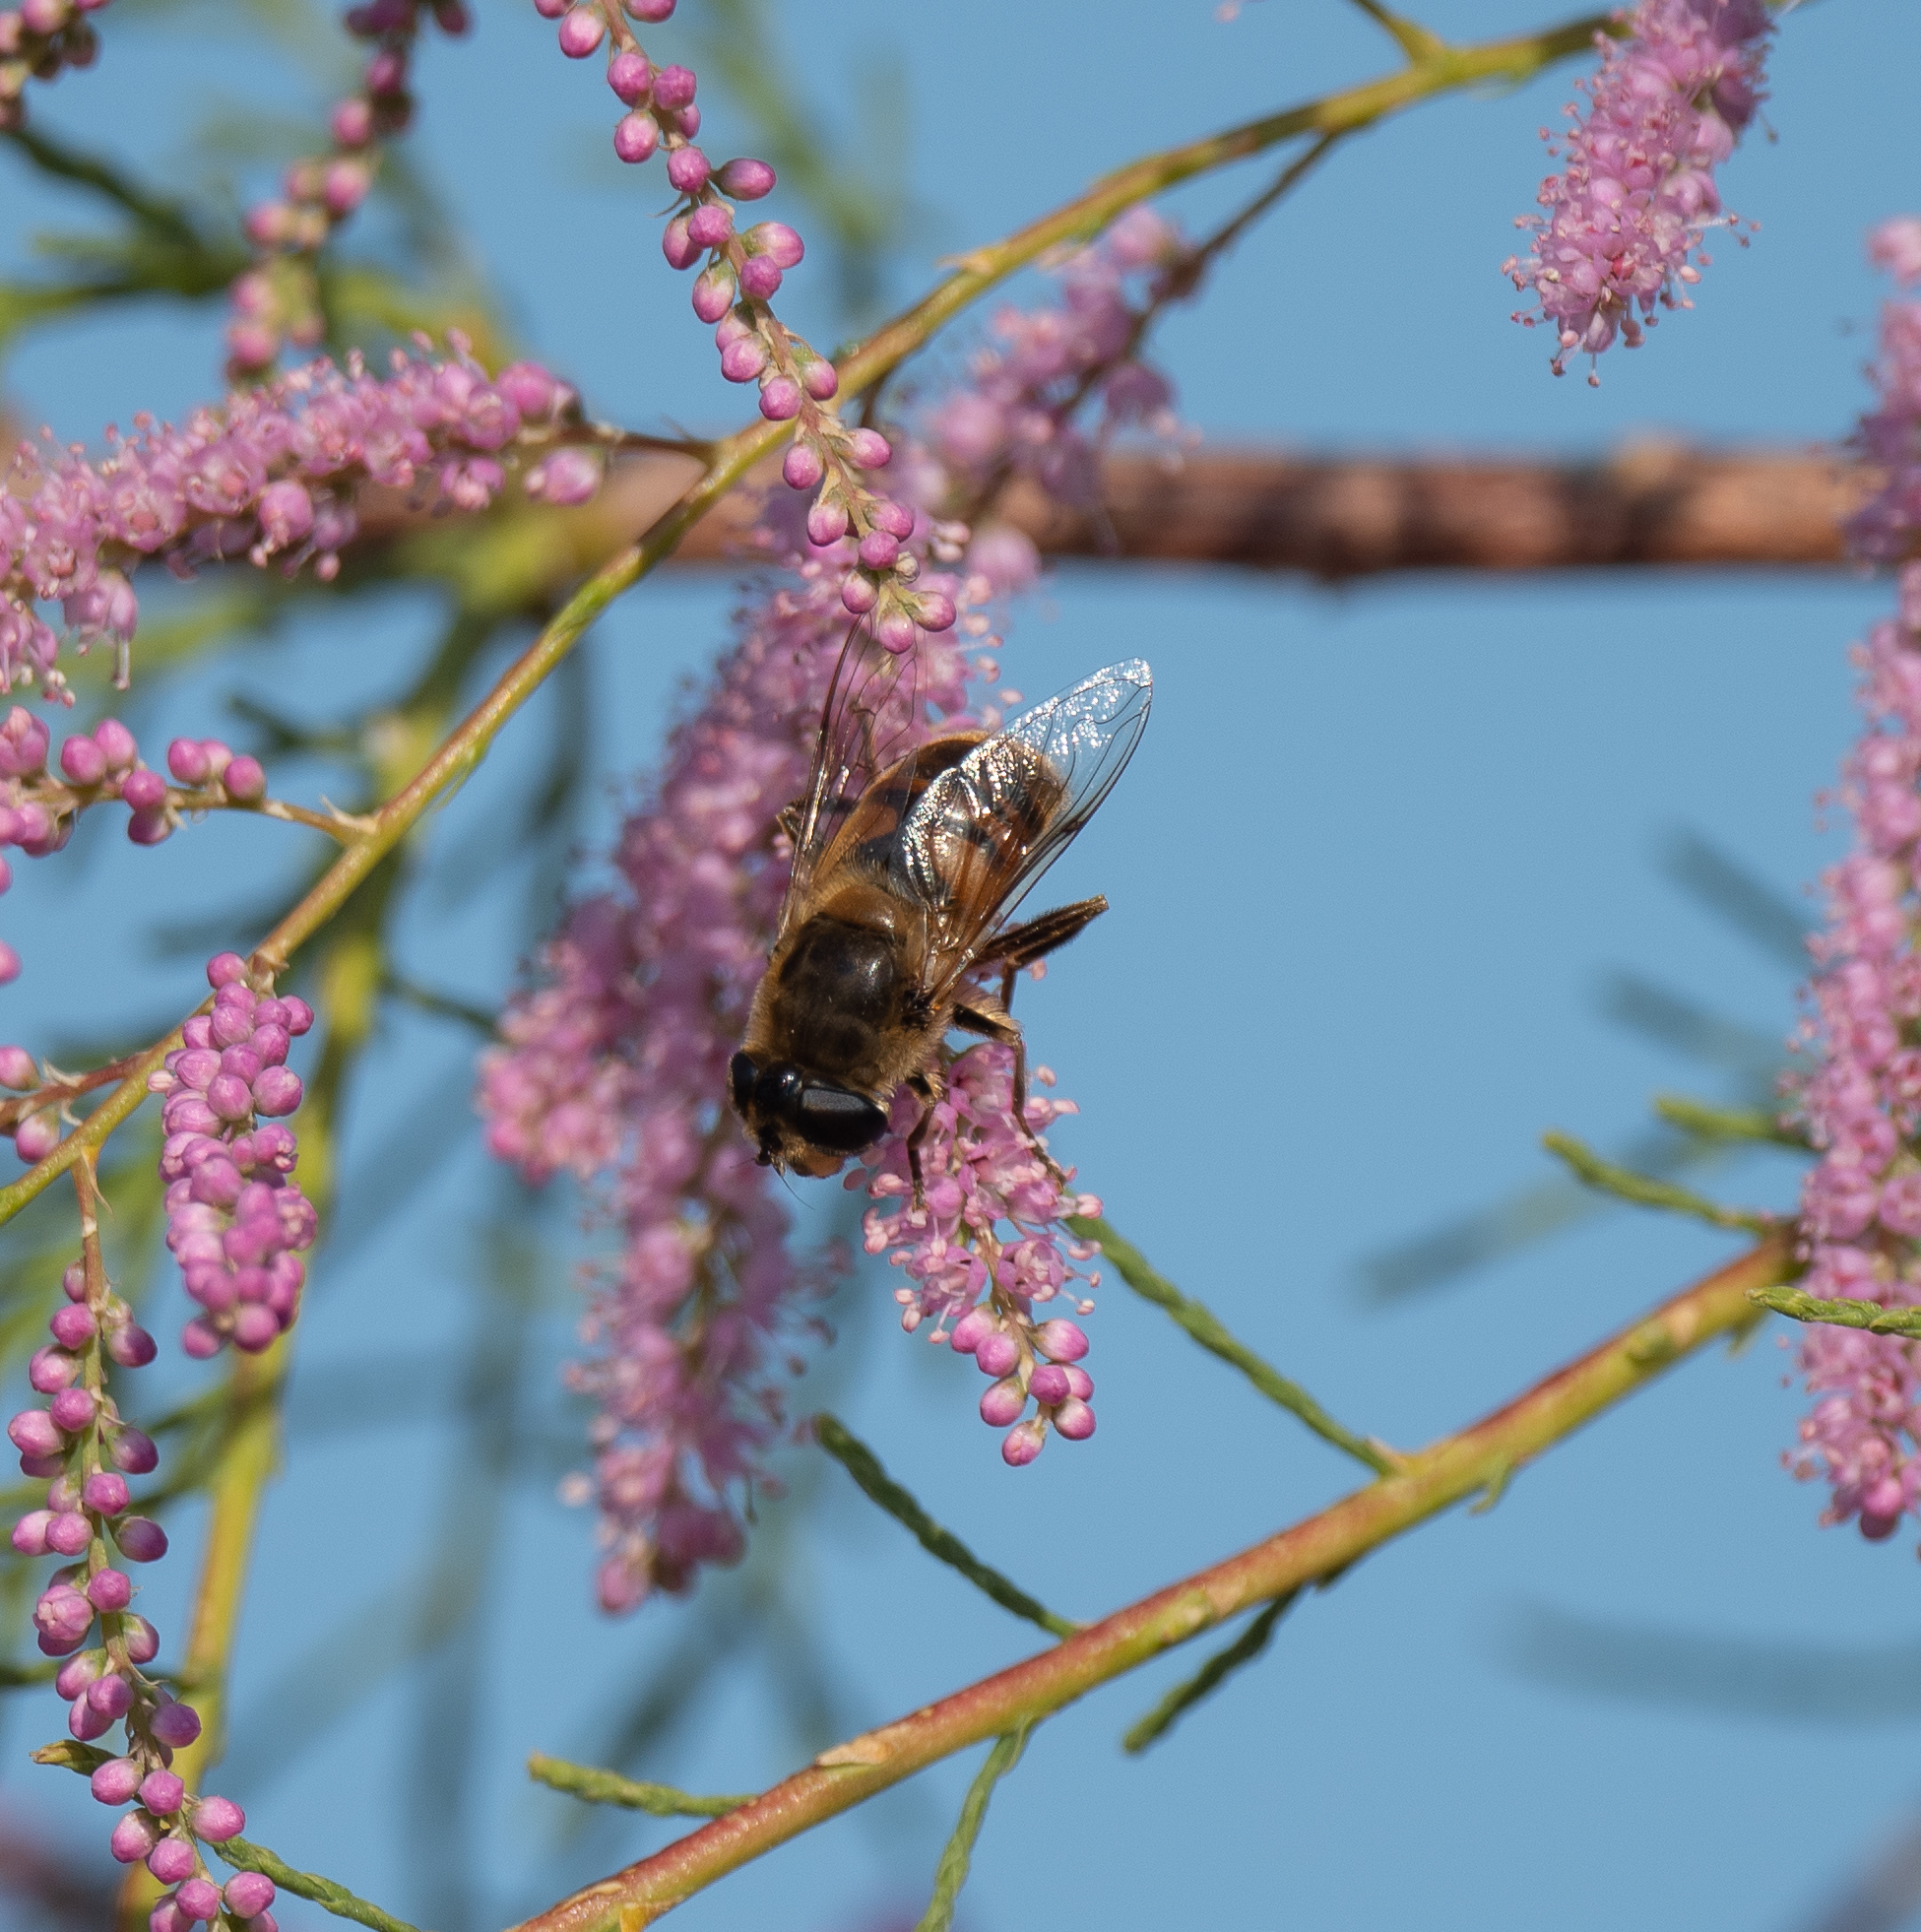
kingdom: Animalia
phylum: Arthropoda
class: Insecta
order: Diptera
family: Syrphidae
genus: Eristalis
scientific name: Eristalis tenax
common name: Drone fly
